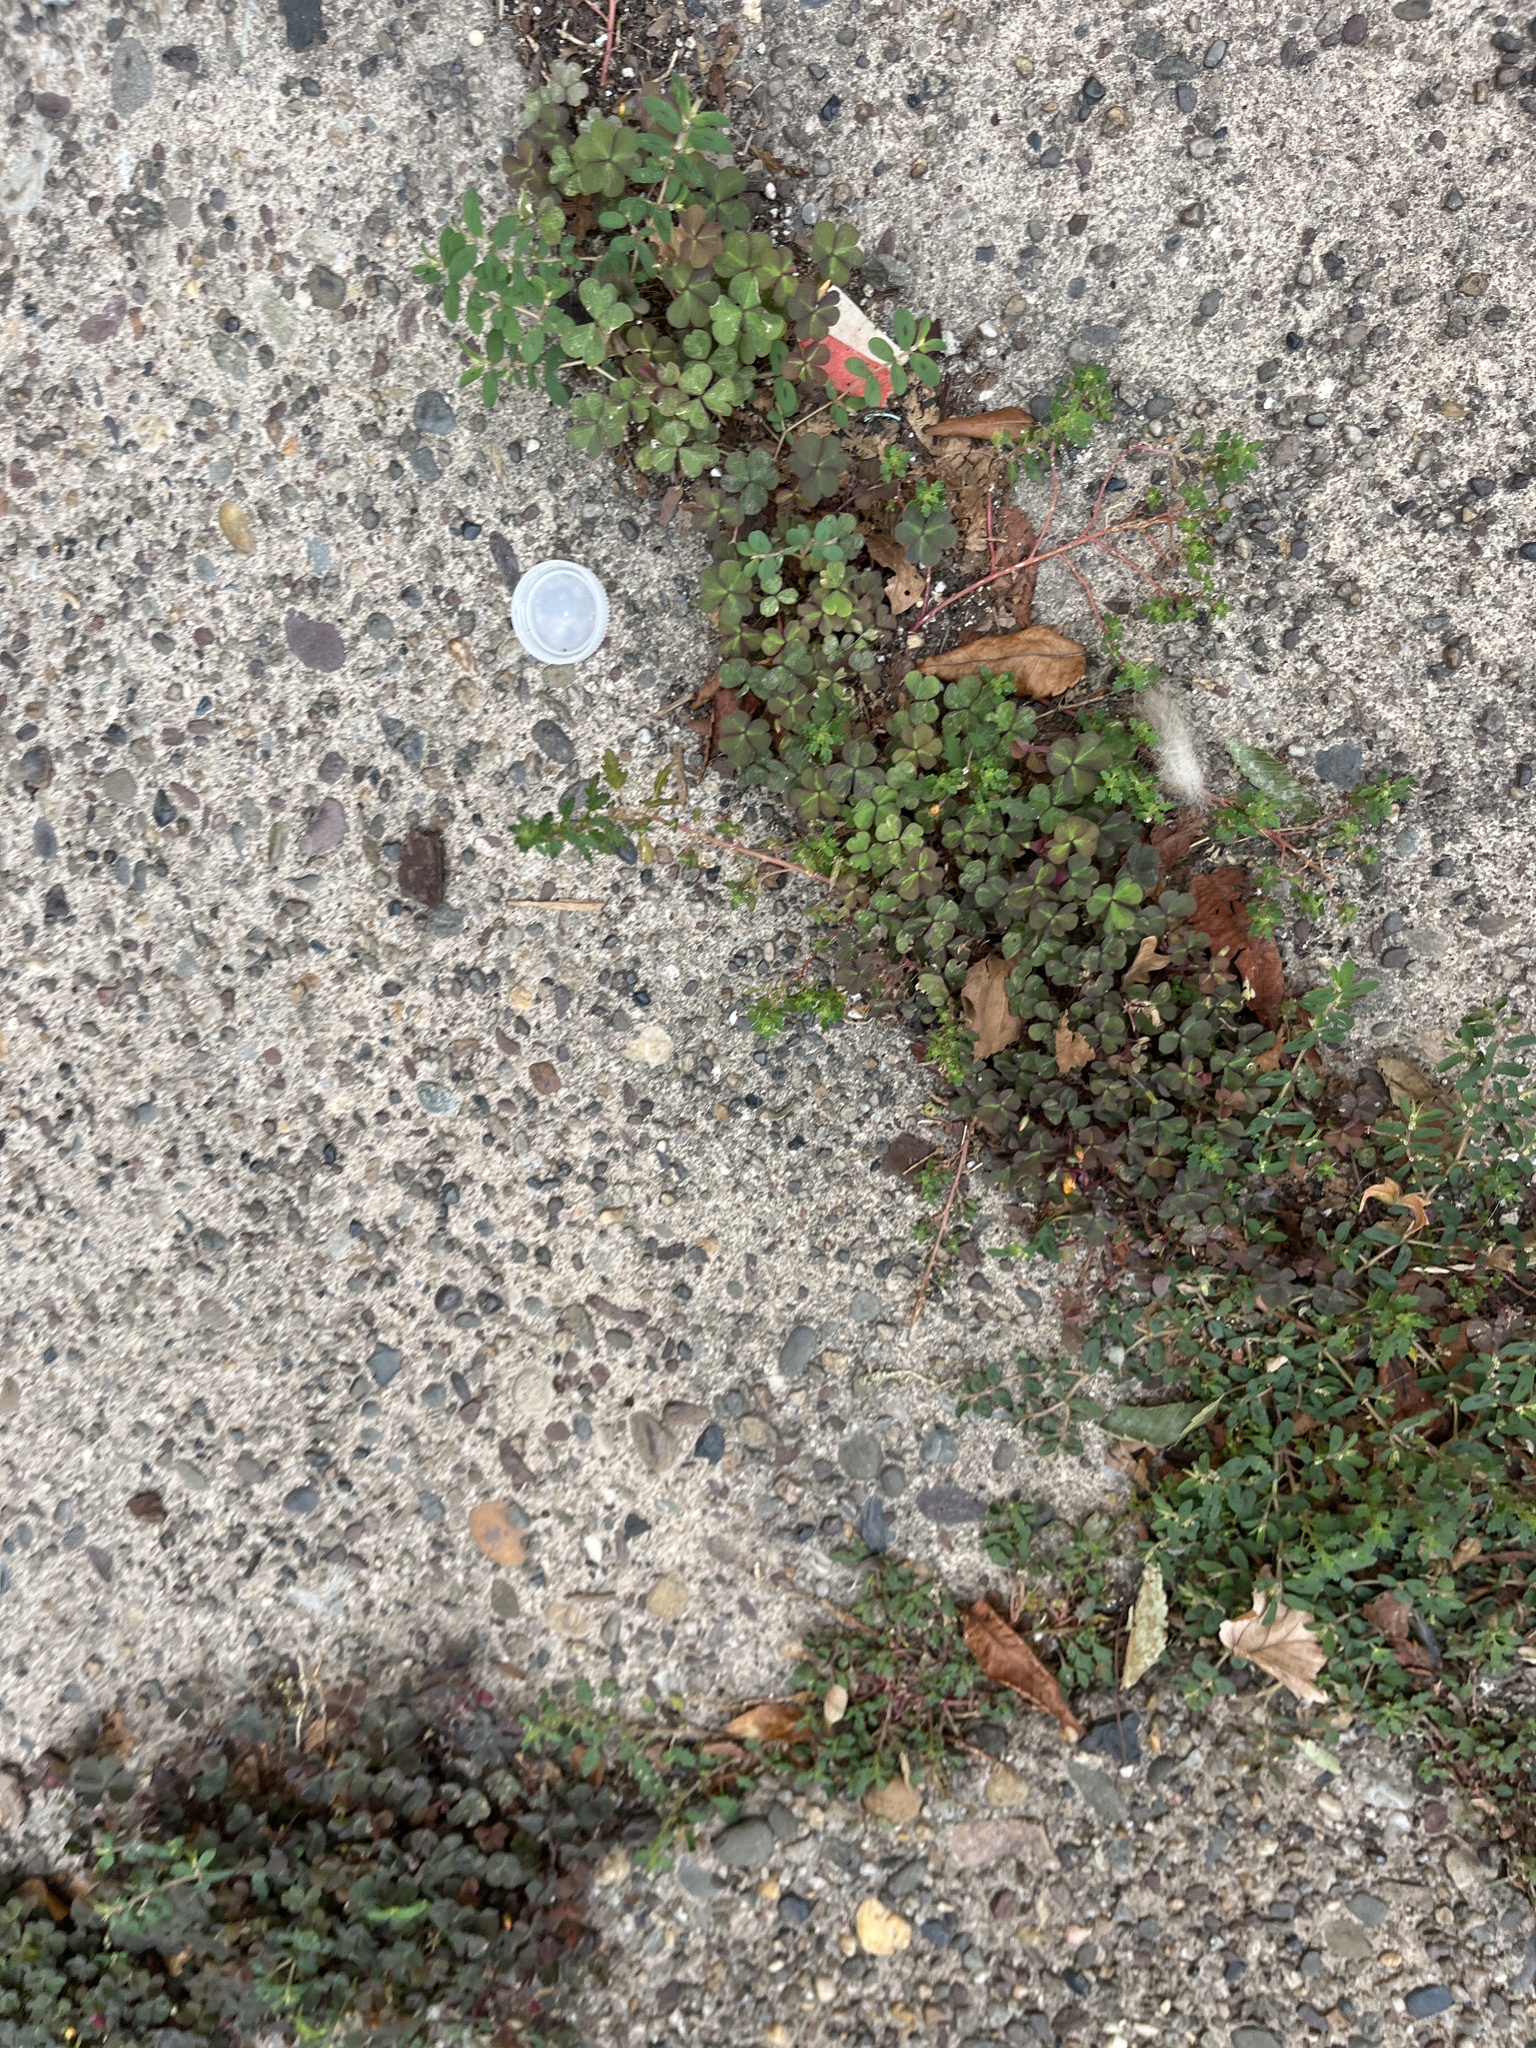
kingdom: Plantae
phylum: Tracheophyta
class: Magnoliopsida
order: Oxalidales
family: Oxalidaceae
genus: Oxalis
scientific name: Oxalis corniculata
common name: Procumbent yellow-sorrel
